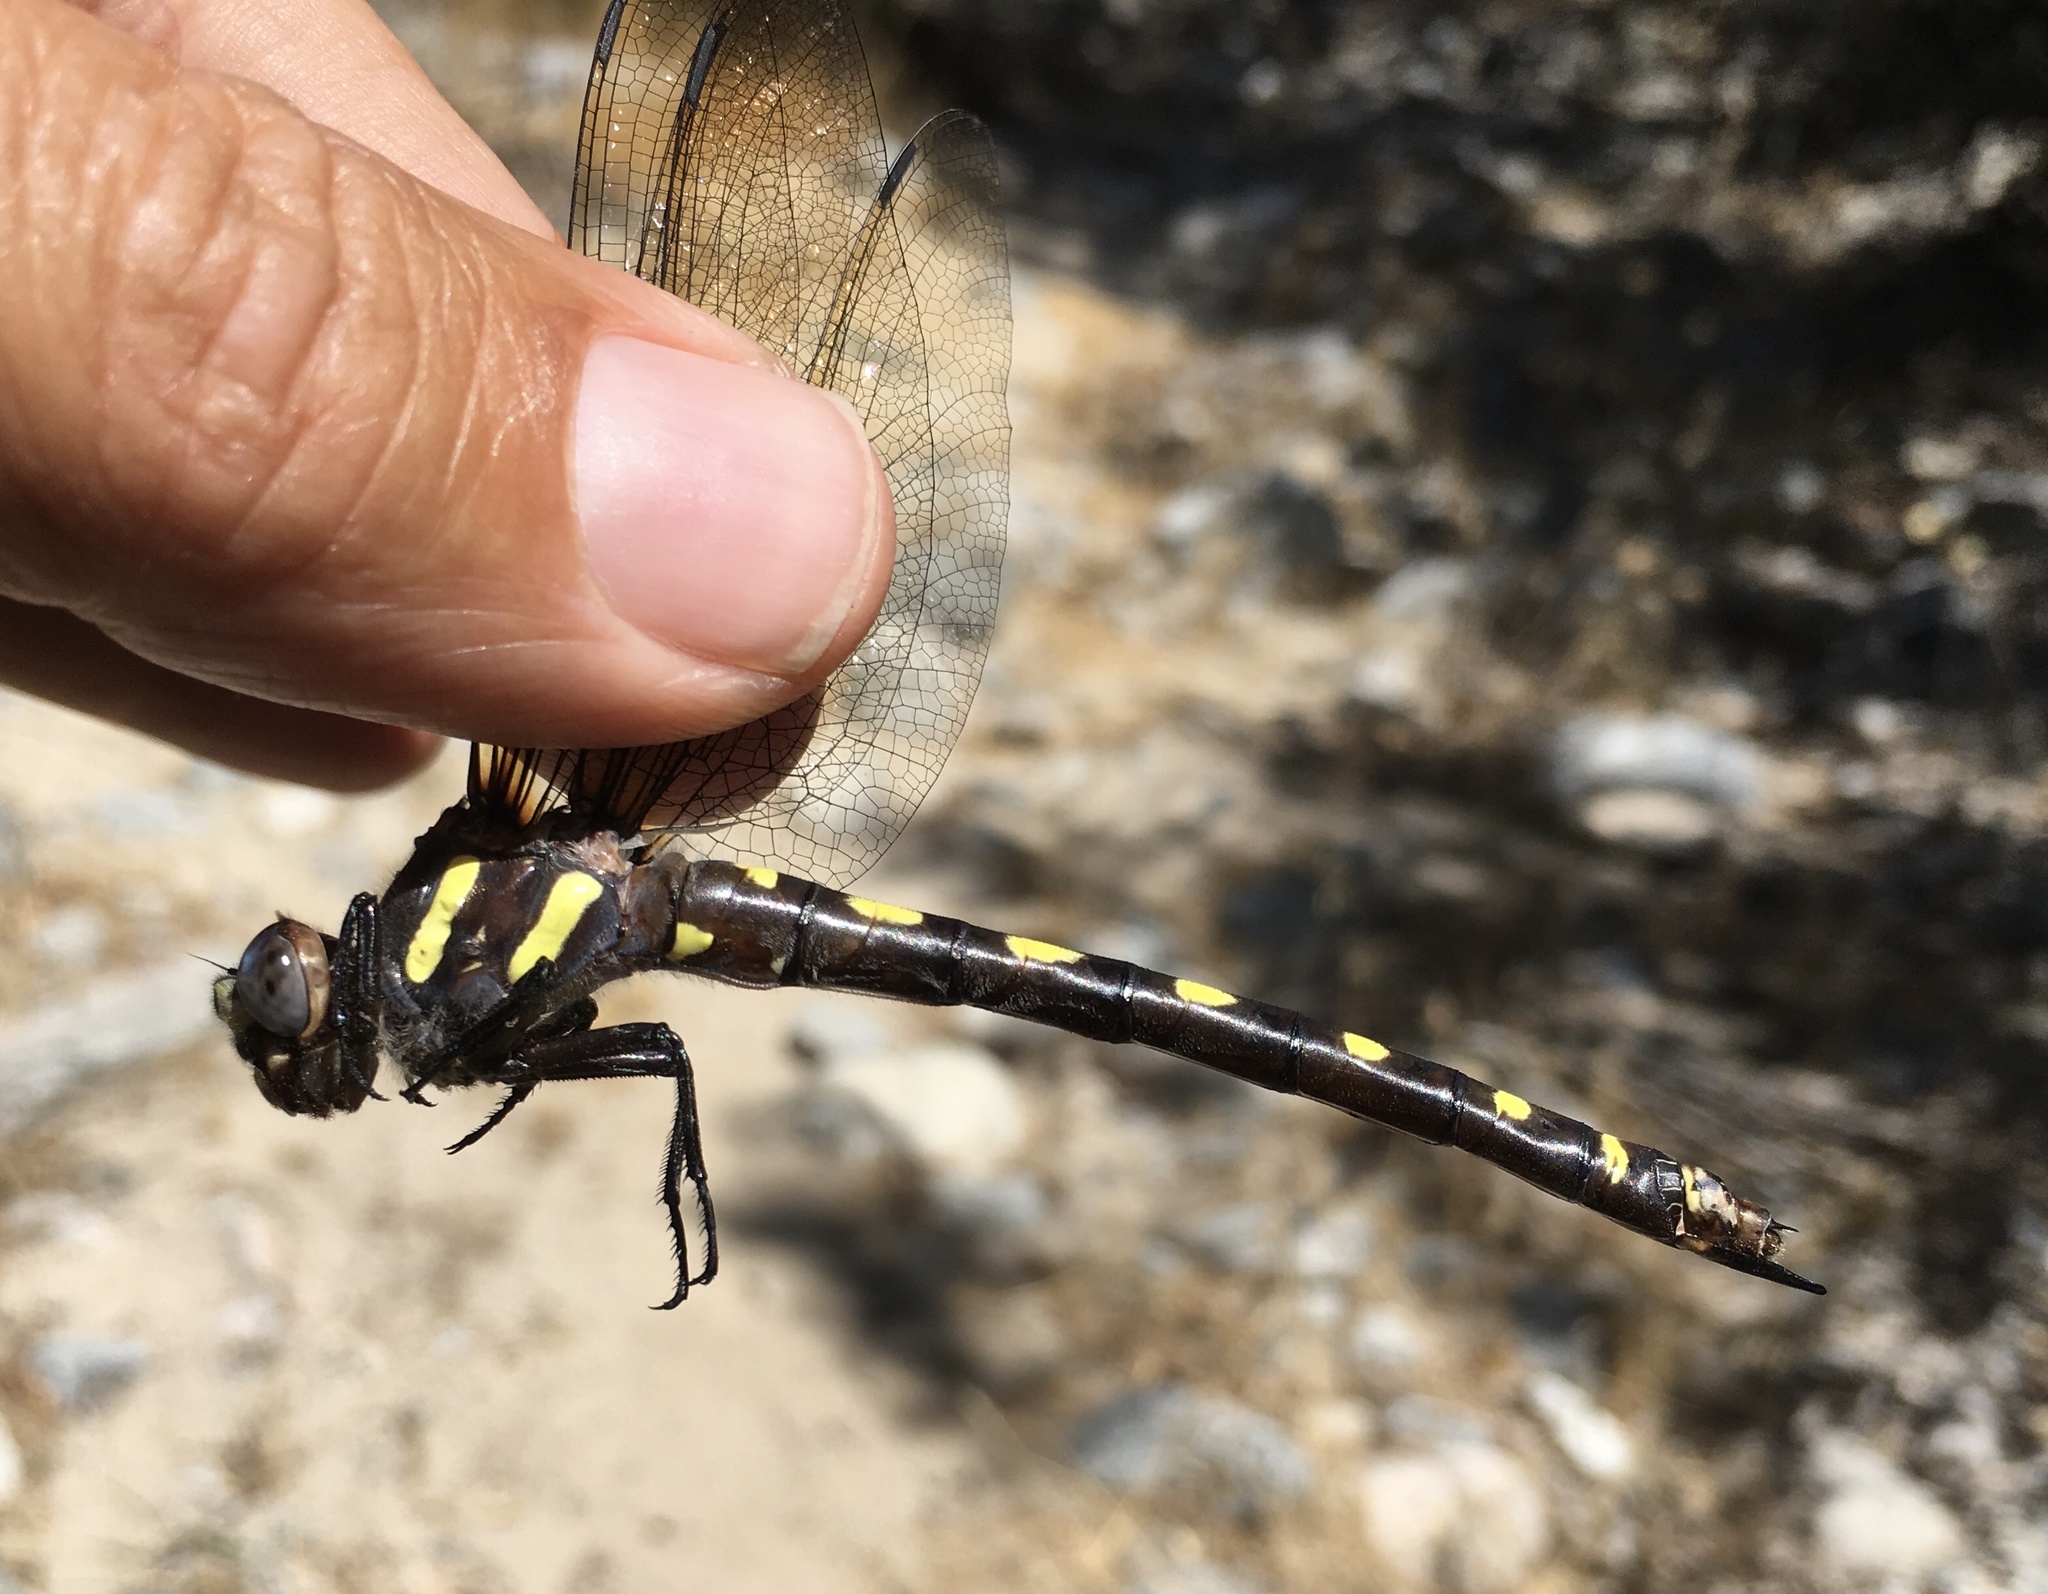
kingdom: Animalia
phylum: Arthropoda
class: Insecta
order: Odonata
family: Cordulegastridae
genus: Cordulegaster
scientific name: Cordulegaster dorsalis
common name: Pacific spiketail
